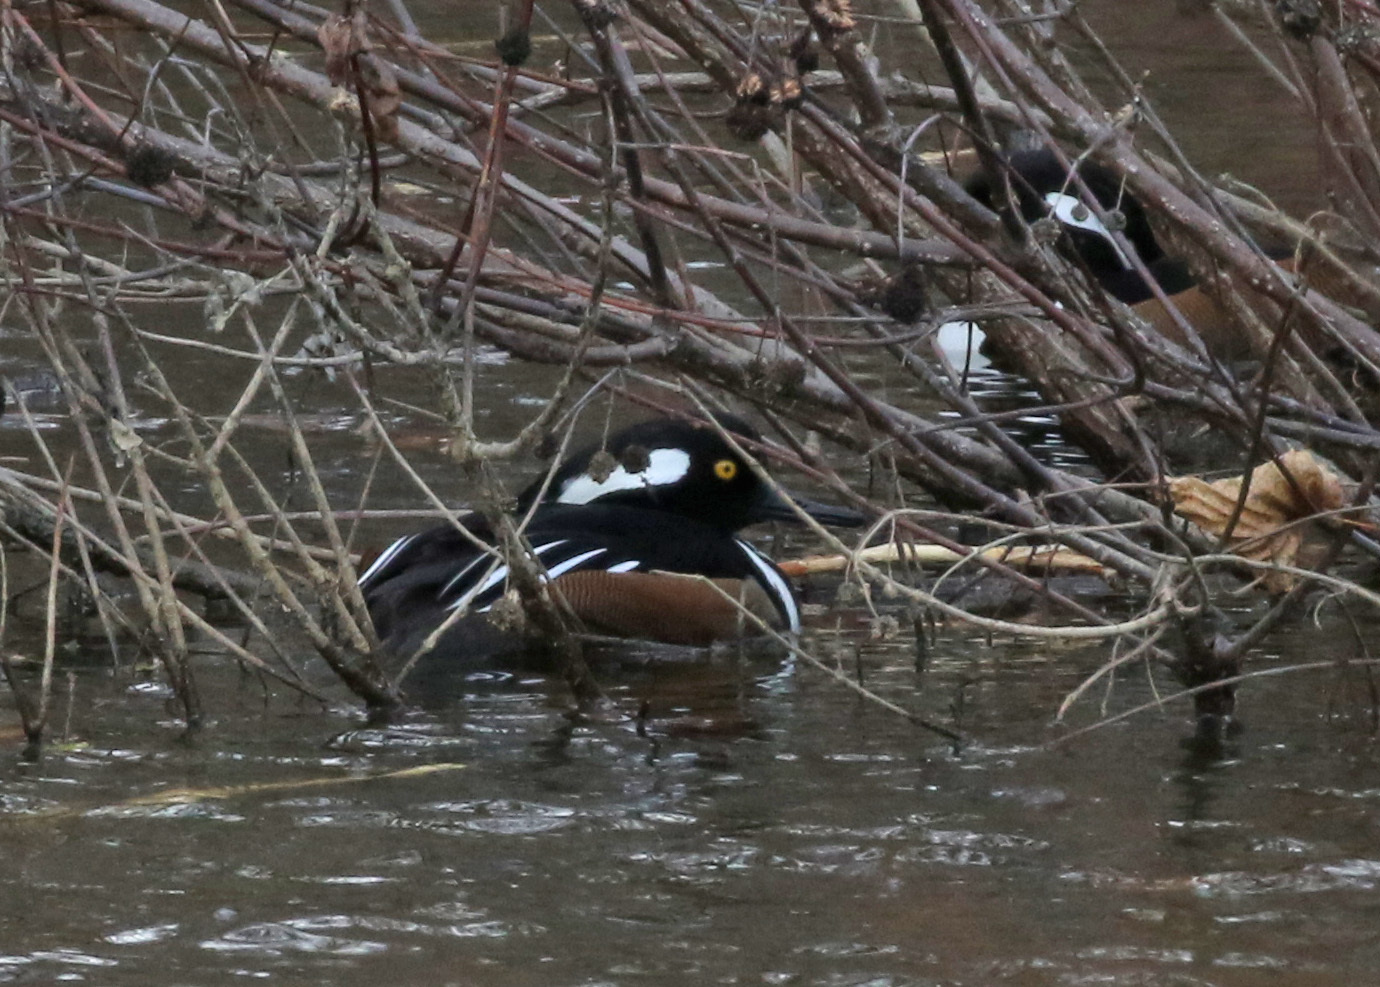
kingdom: Animalia
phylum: Chordata
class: Aves
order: Anseriformes
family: Anatidae
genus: Lophodytes
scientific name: Lophodytes cucullatus
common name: Hooded merganser
